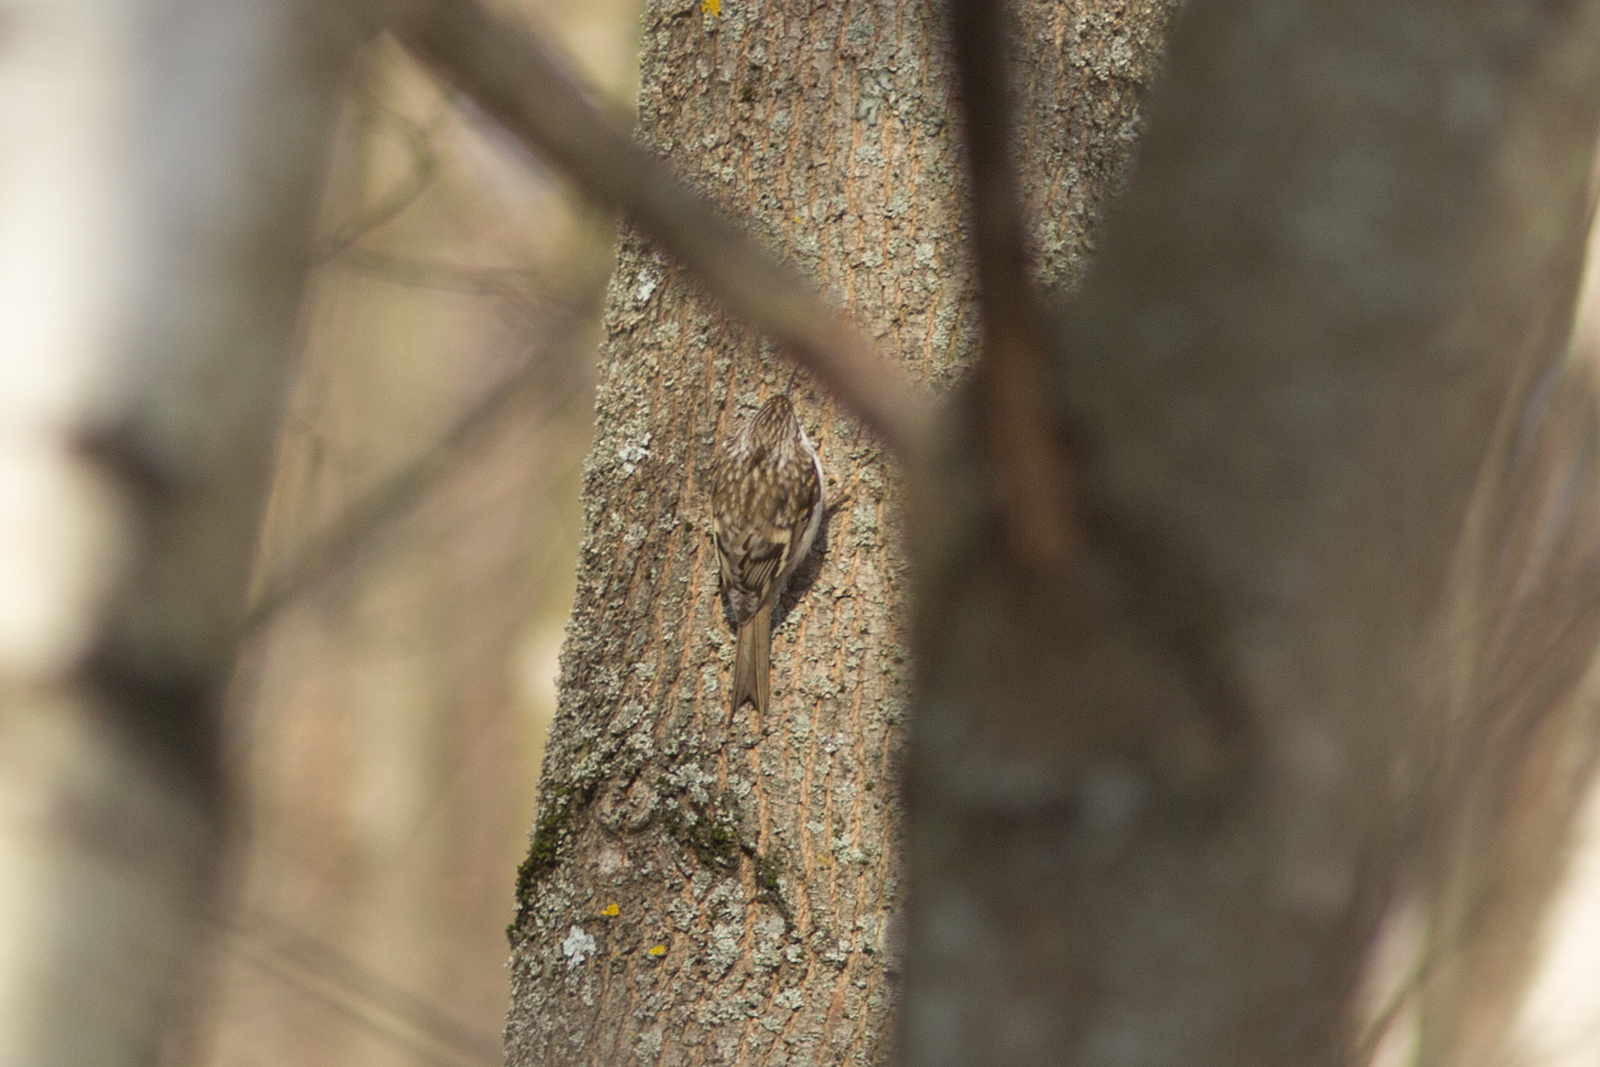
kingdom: Animalia
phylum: Chordata
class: Aves
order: Passeriformes
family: Certhiidae
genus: Certhia
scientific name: Certhia familiaris
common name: Eurasian treecreeper
